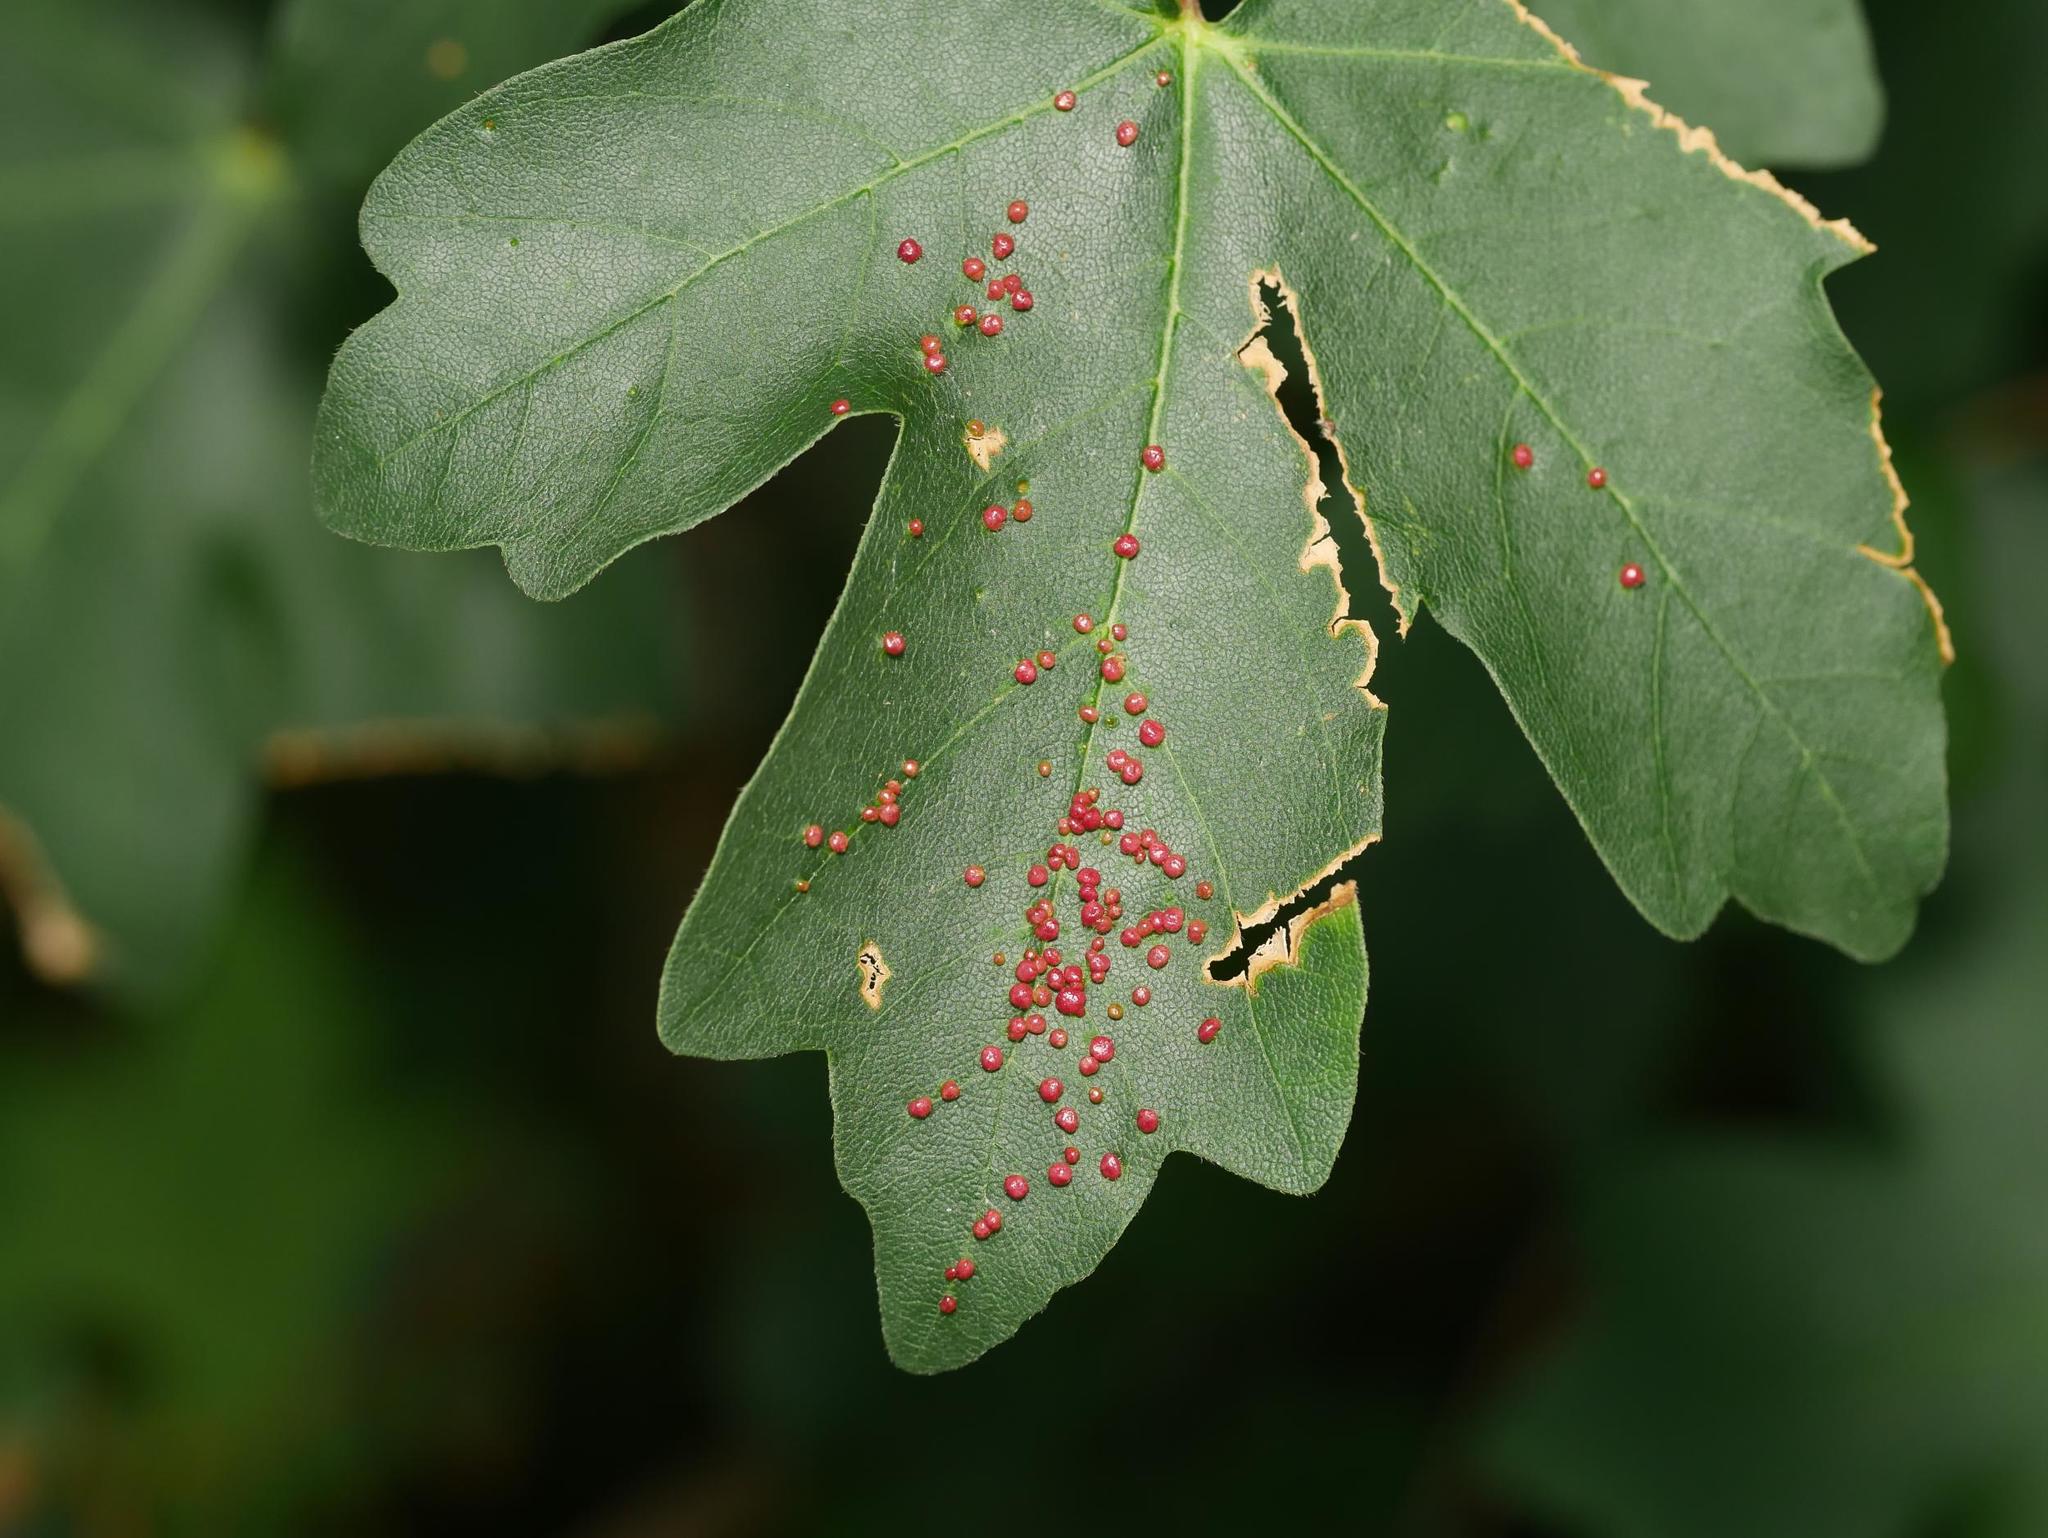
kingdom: Animalia
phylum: Arthropoda
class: Arachnida
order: Trombidiformes
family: Eriophyidae
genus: Aceria
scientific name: Aceria myriadeum
